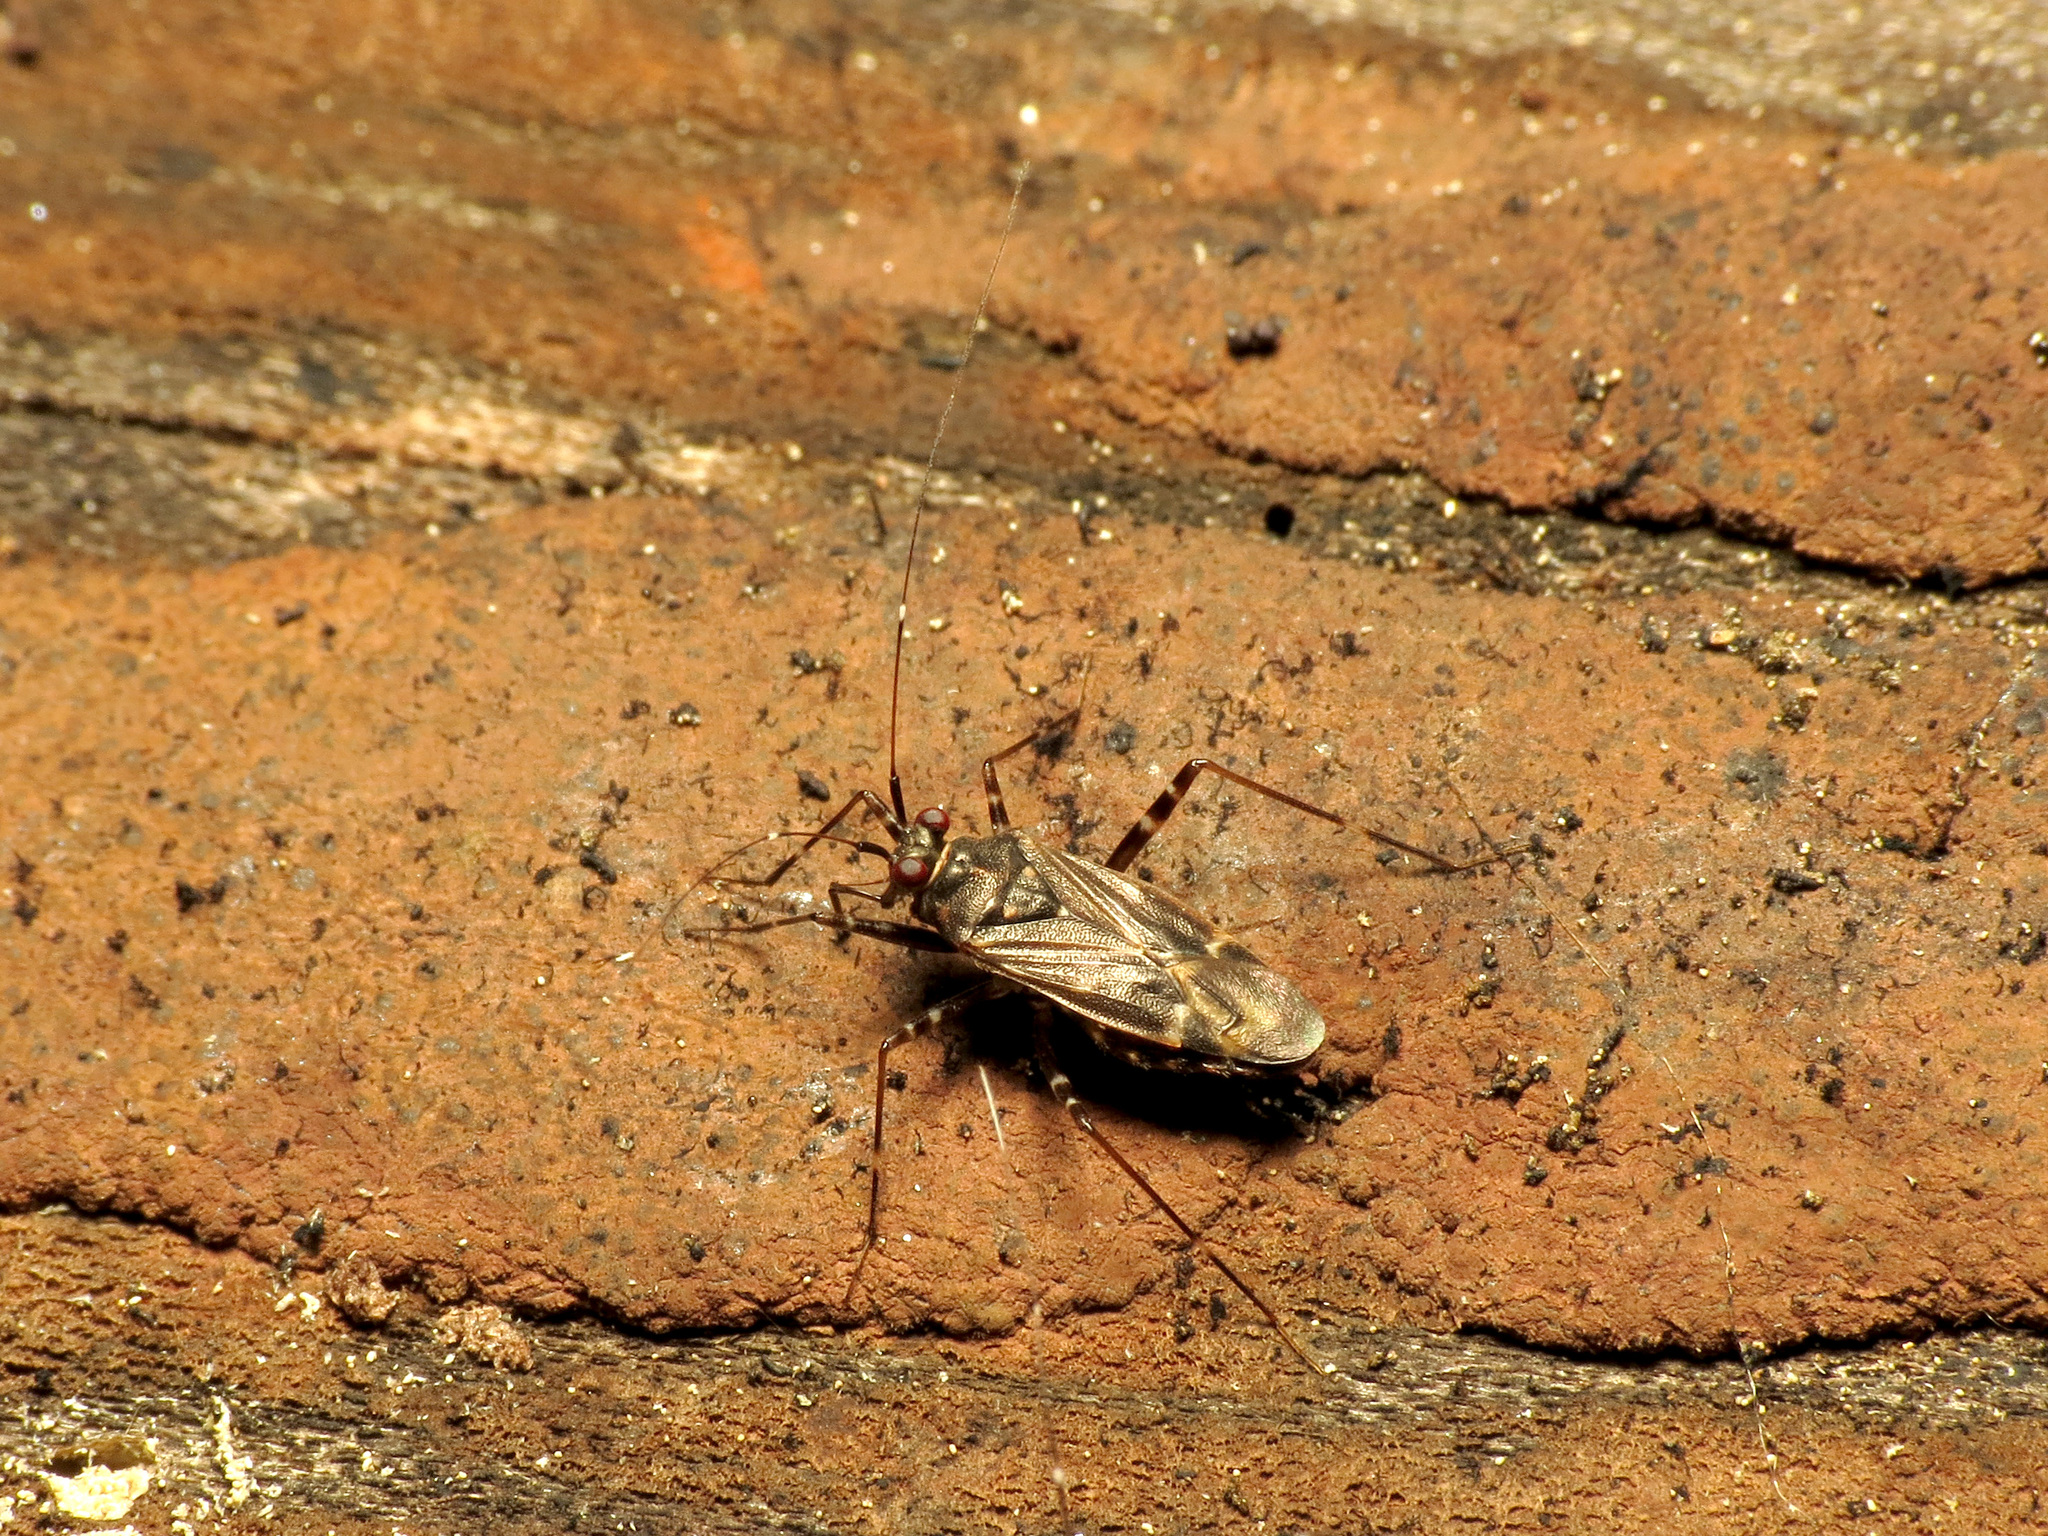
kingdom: Animalia
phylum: Arthropoda
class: Insecta
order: Hemiptera
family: Miridae
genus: Cylapus
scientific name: Cylapus tenuicornis
